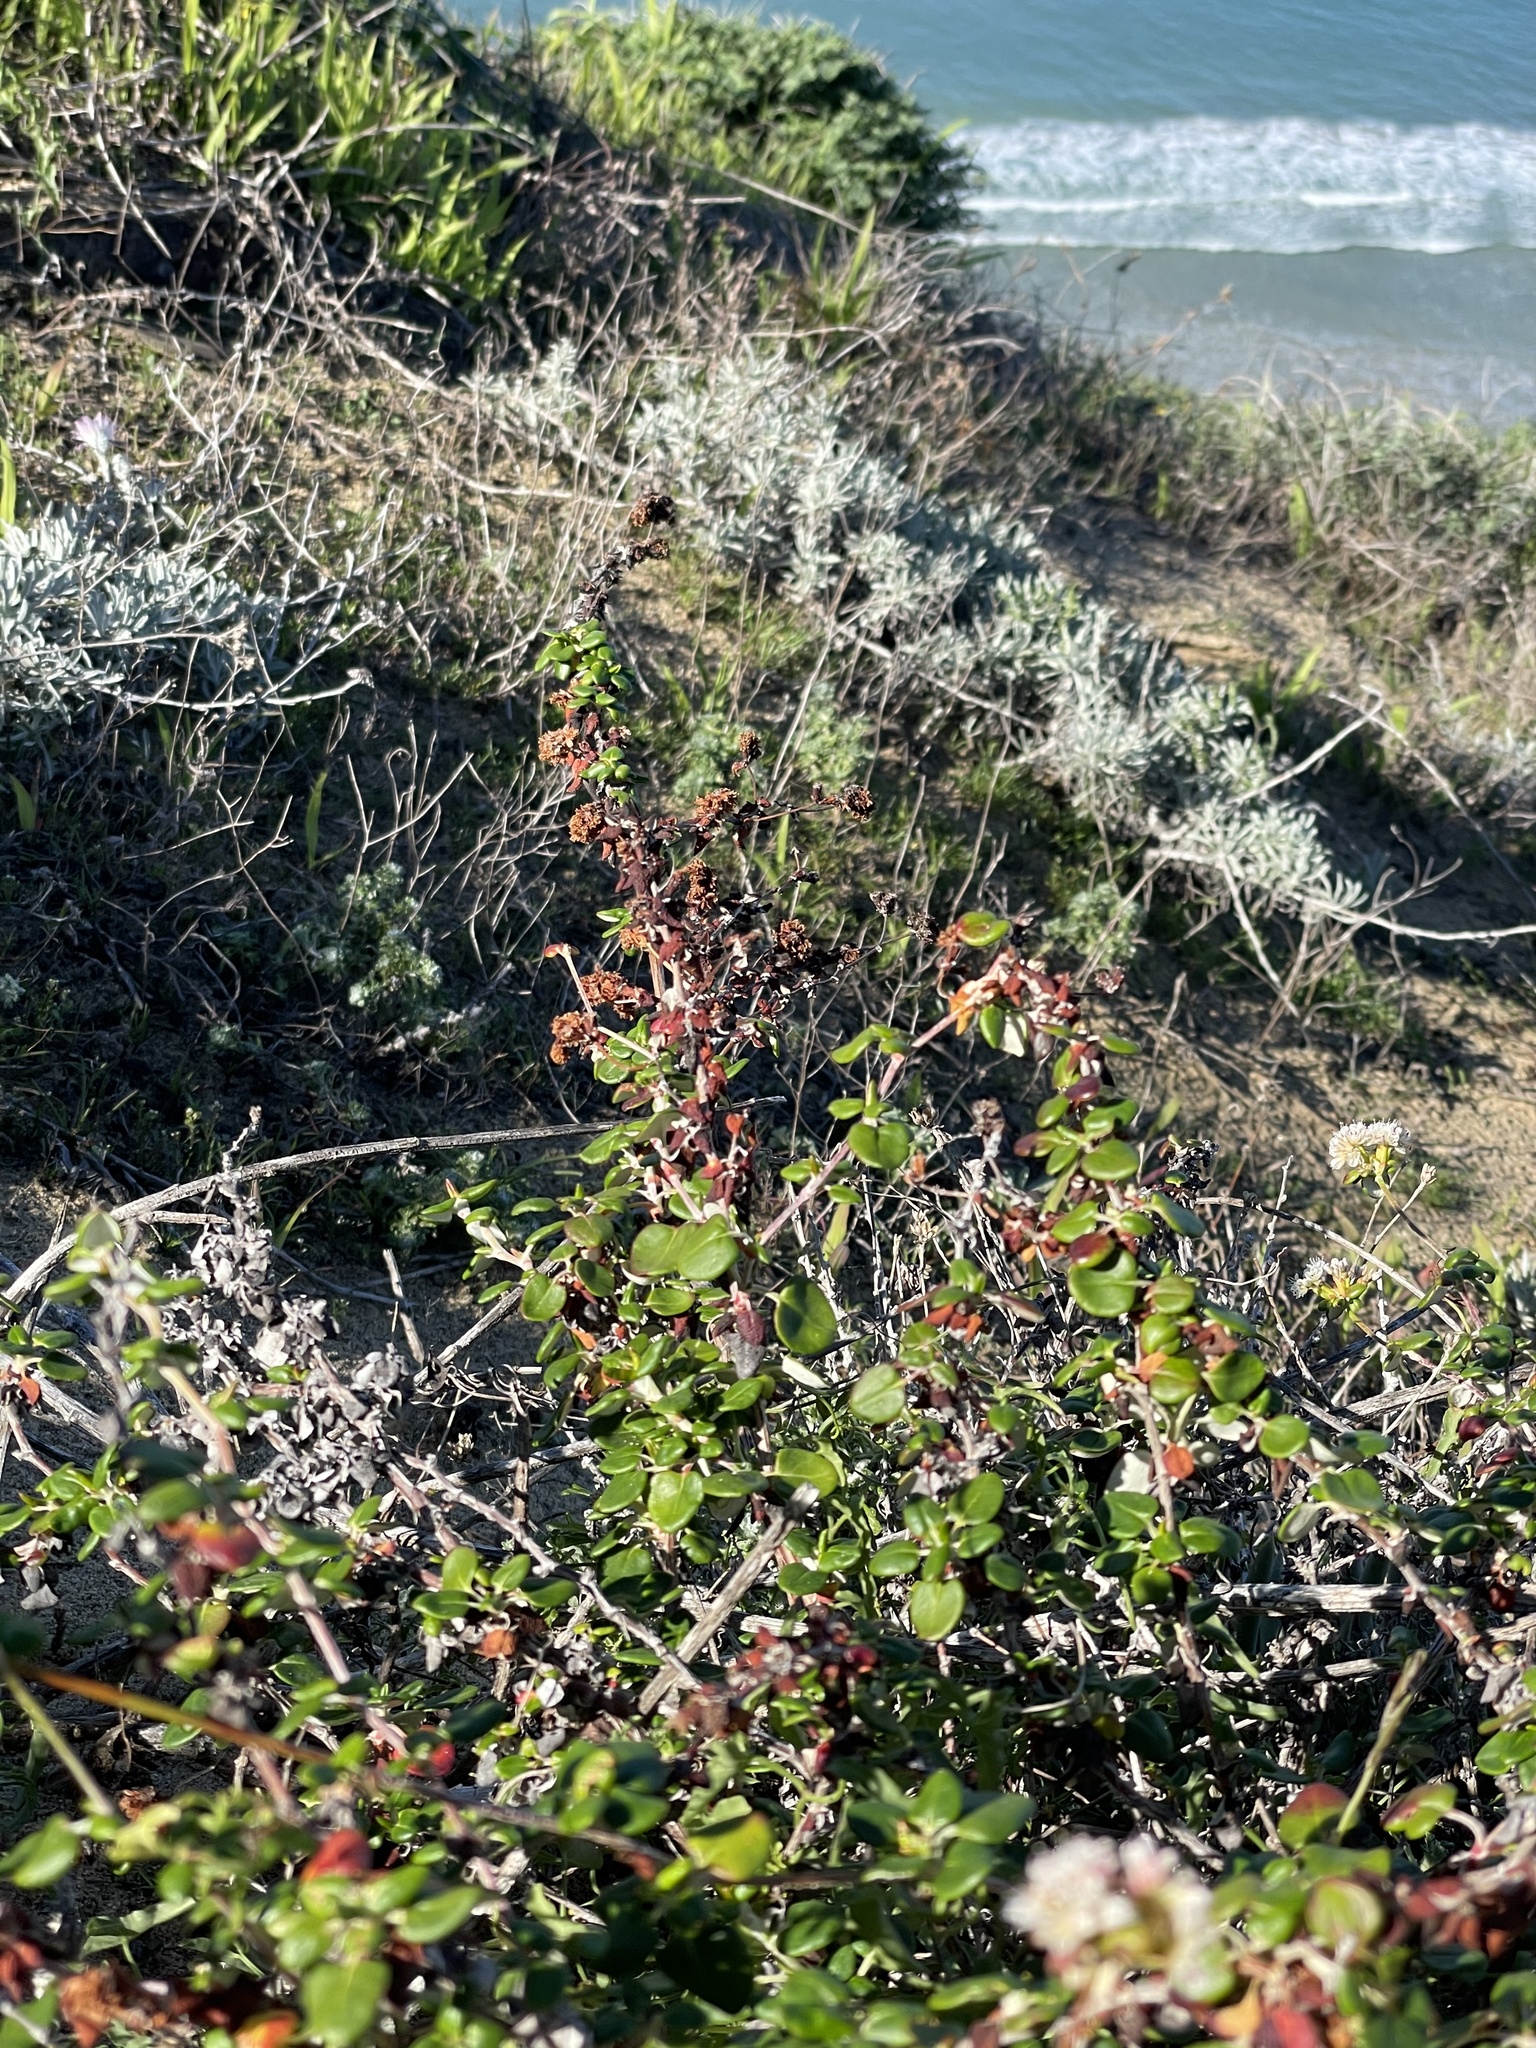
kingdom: Plantae
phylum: Tracheophyta
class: Magnoliopsida
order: Caryophyllales
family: Polygonaceae
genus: Eriogonum
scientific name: Eriogonum parvifolium
